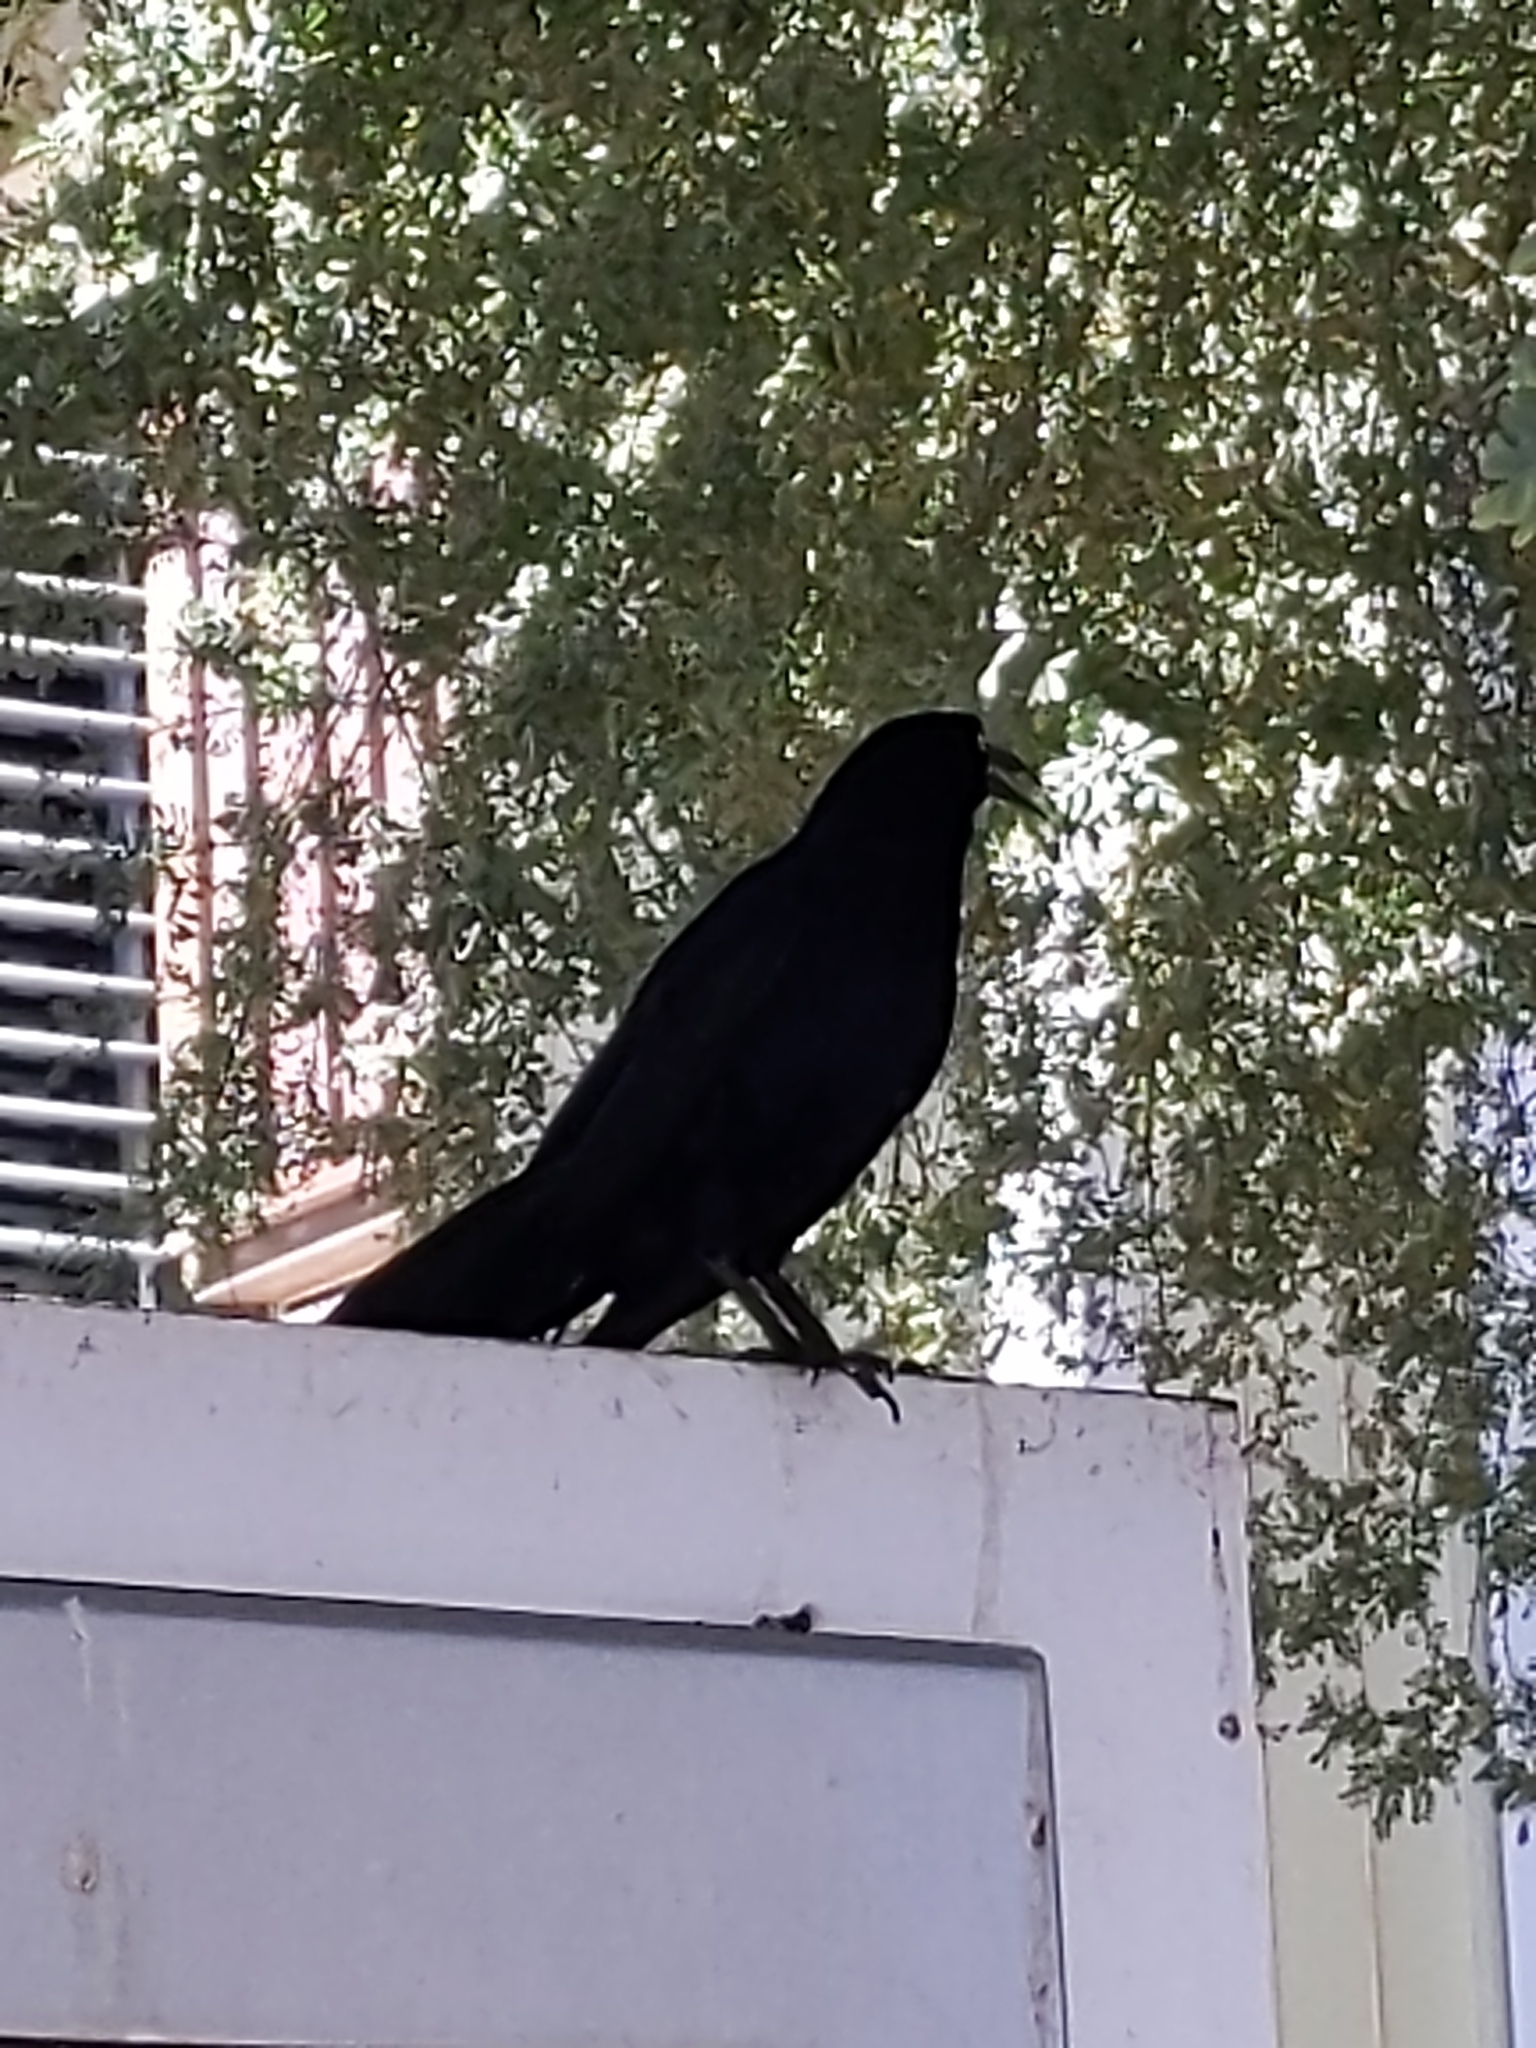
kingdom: Animalia
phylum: Chordata
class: Aves
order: Passeriformes
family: Icteridae
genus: Quiscalus
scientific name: Quiscalus mexicanus
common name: Great-tailed grackle
